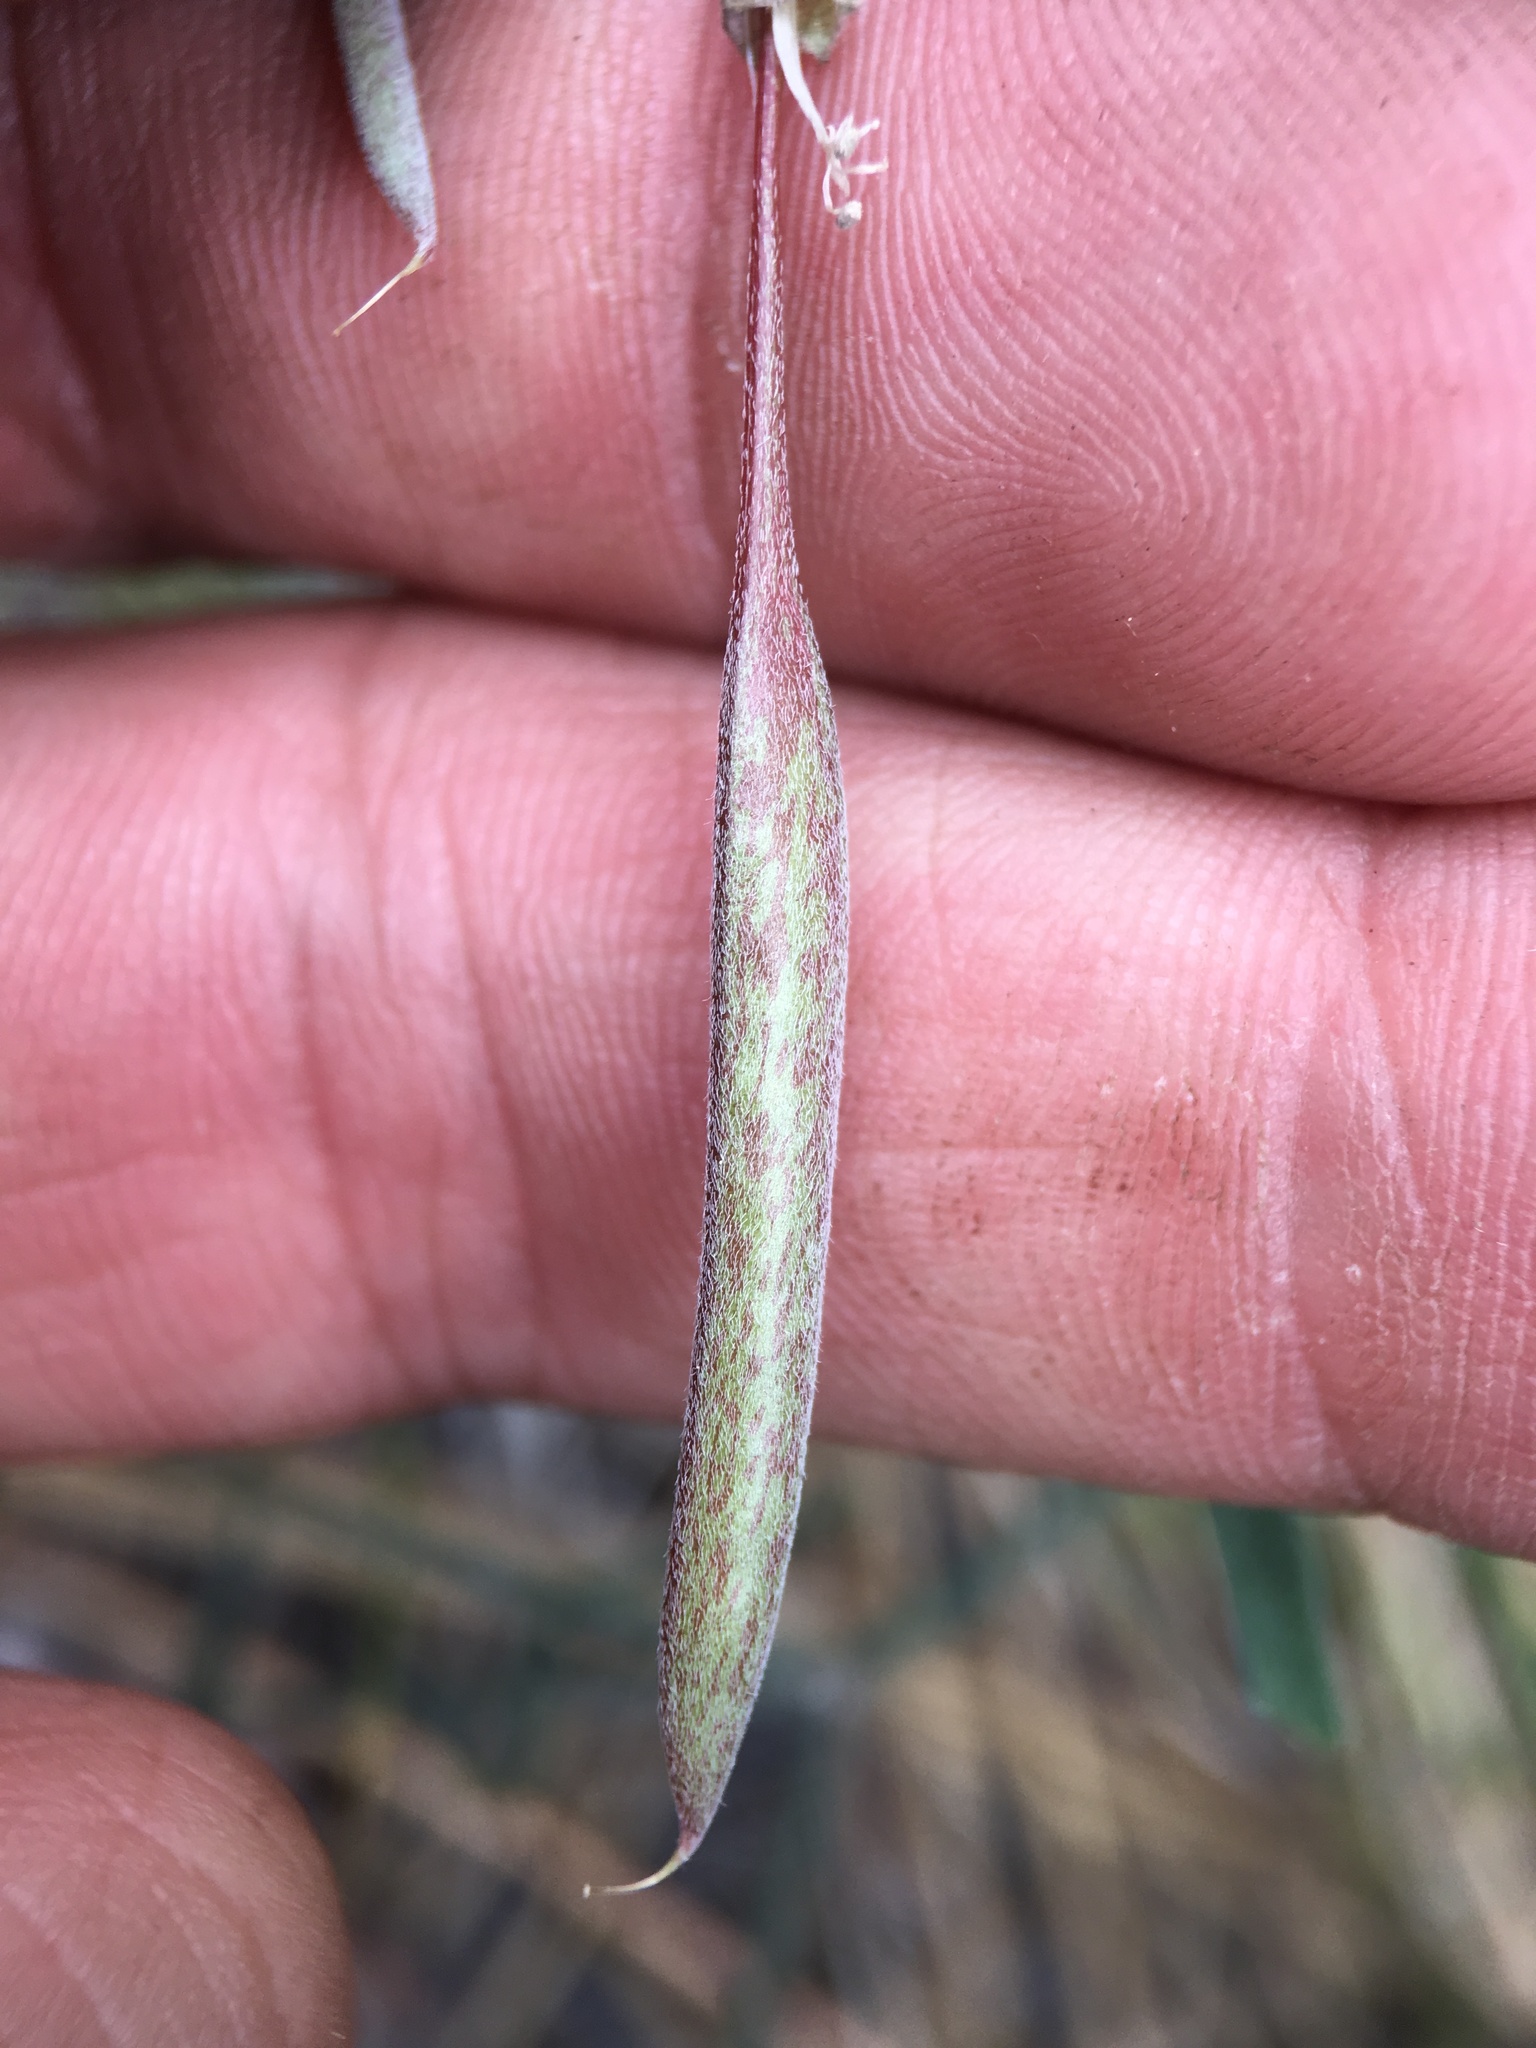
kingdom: Plantae
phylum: Tracheophyta
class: Magnoliopsida
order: Fabales
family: Fabaceae
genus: Astragalus
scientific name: Astragalus inversus
